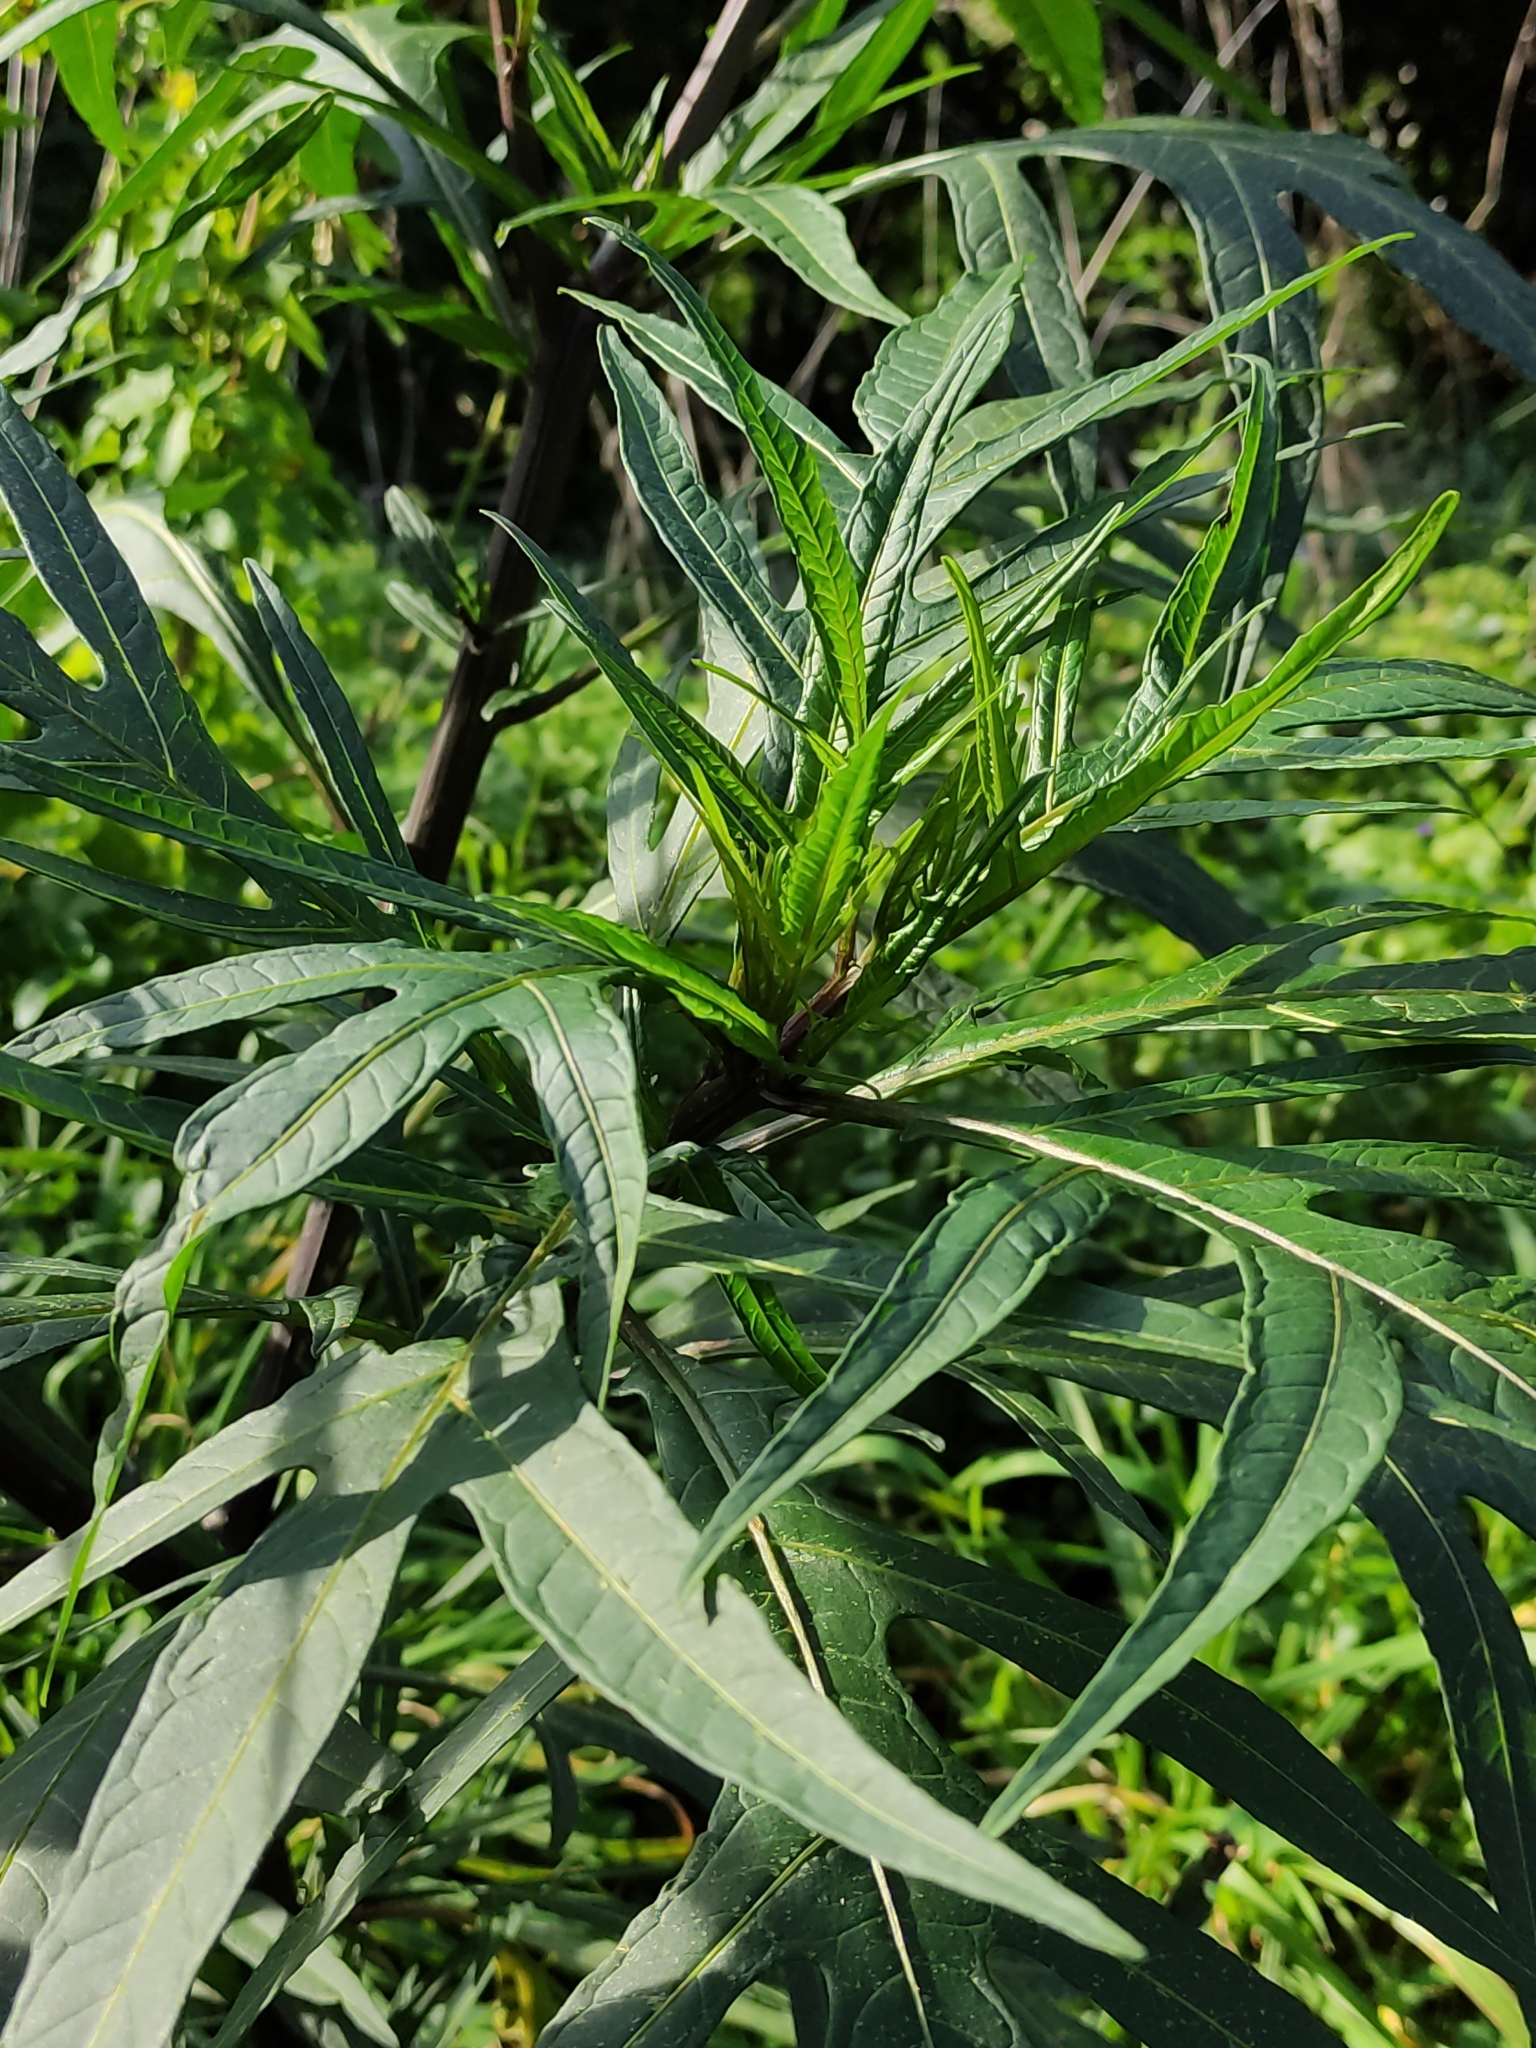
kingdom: Plantae
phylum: Tracheophyta
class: Magnoliopsida
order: Solanales
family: Solanaceae
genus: Solanum
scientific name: Solanum
